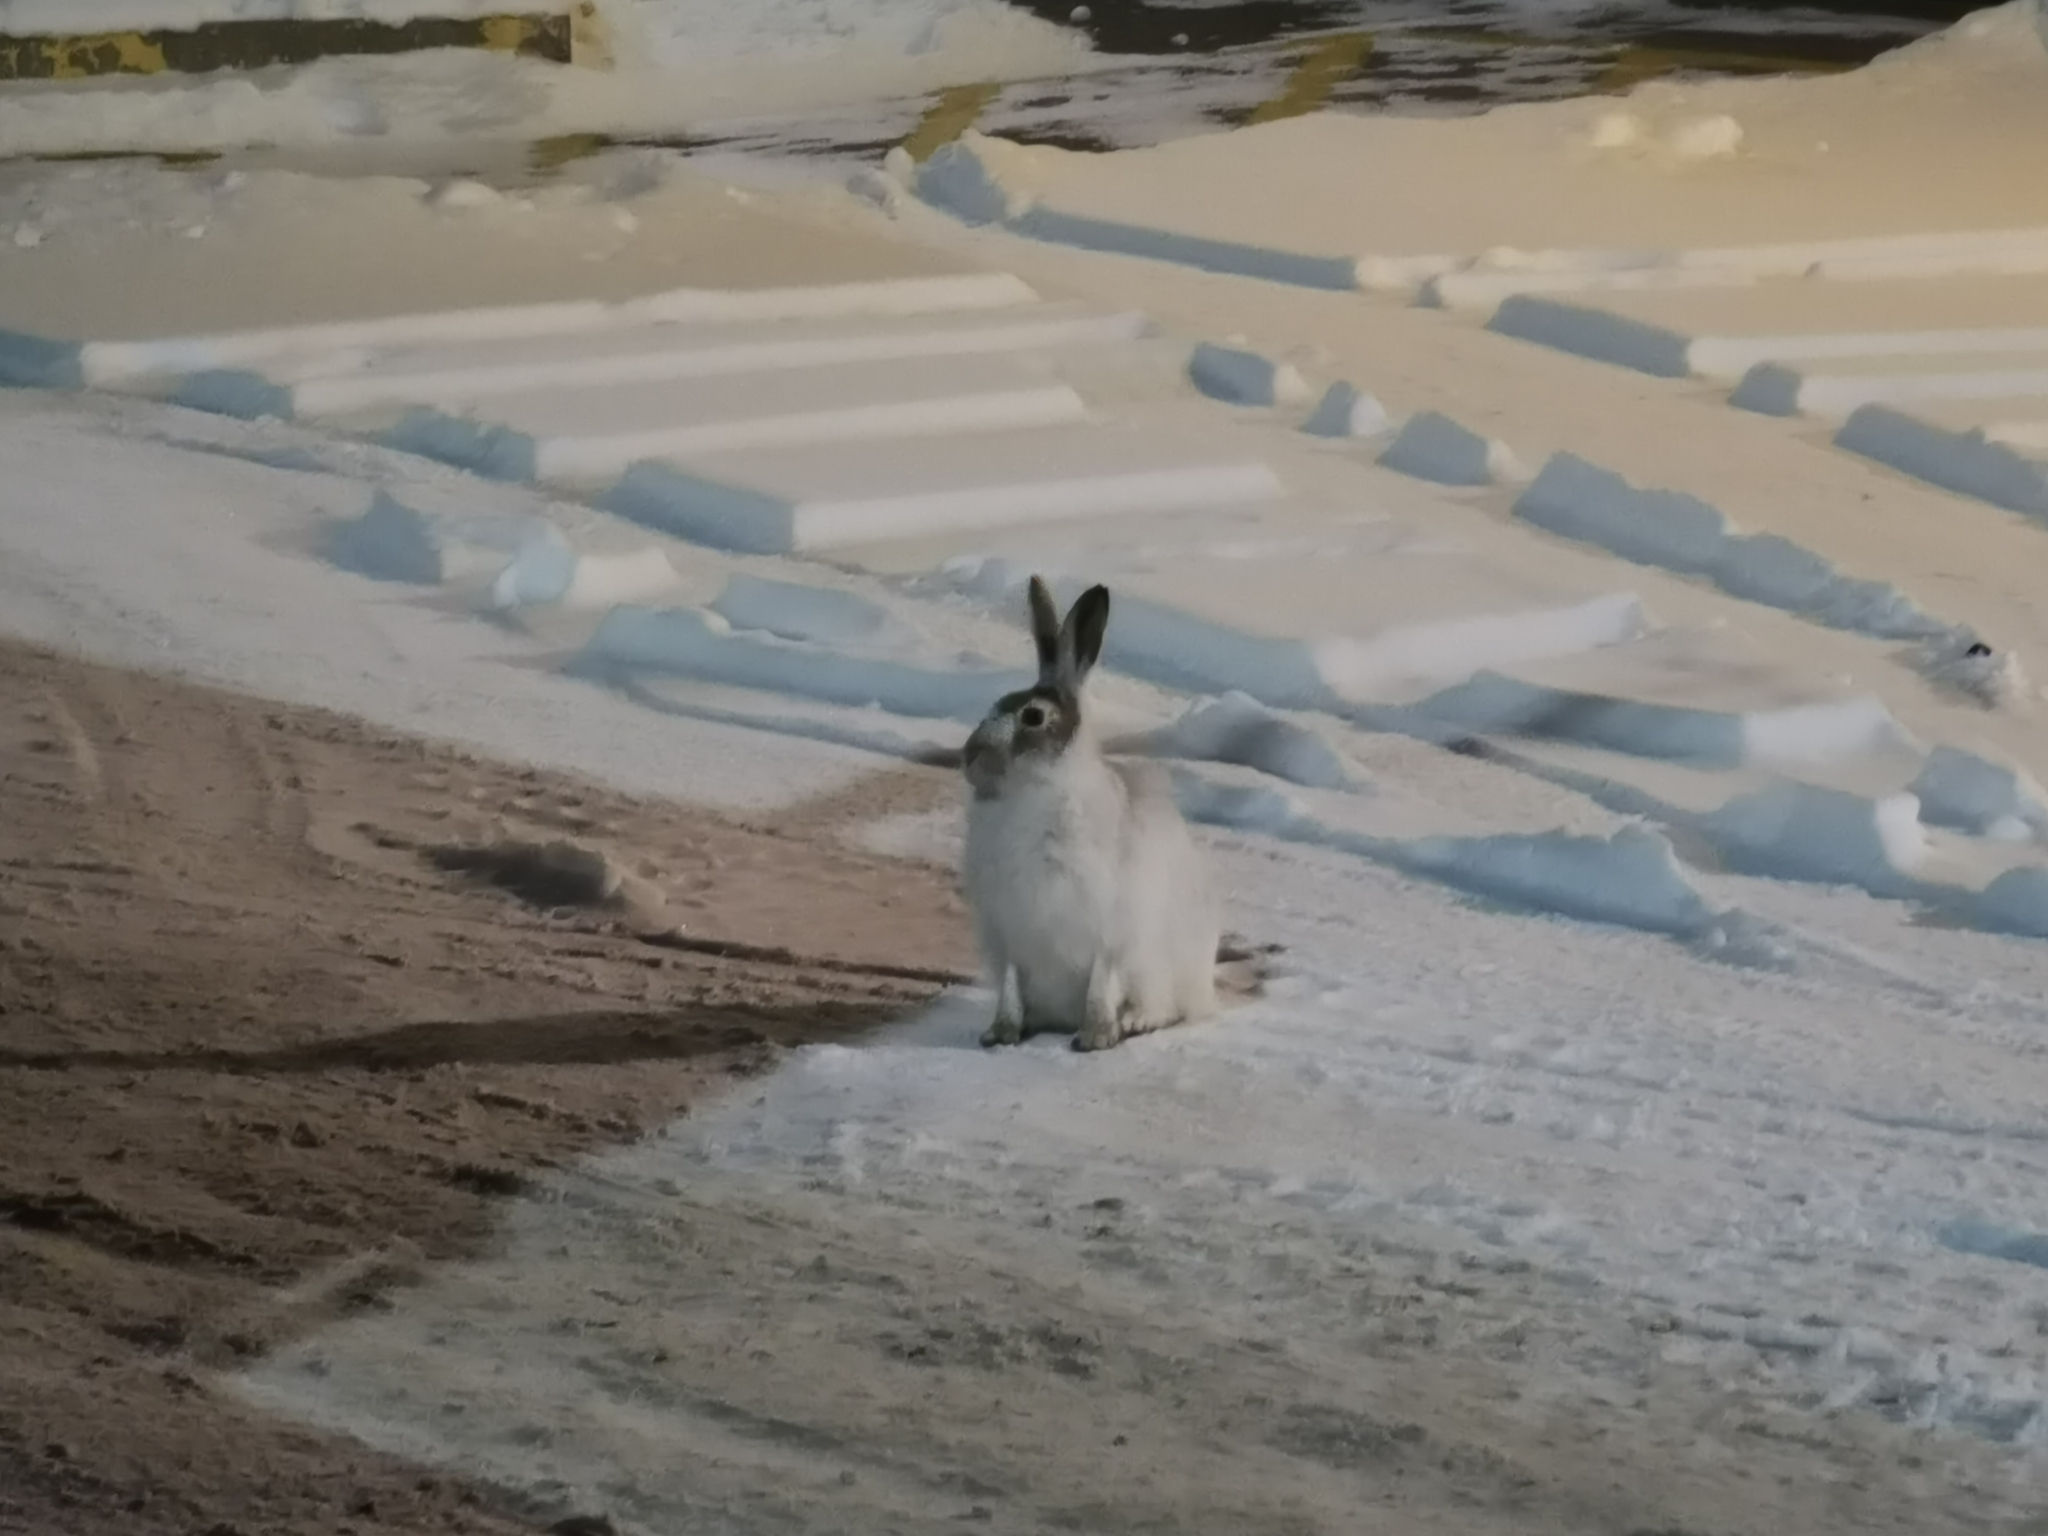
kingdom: Animalia
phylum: Chordata
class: Mammalia
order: Lagomorpha
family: Leporidae
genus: Lepus
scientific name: Lepus townsendii
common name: White-tailed jackrabbit
